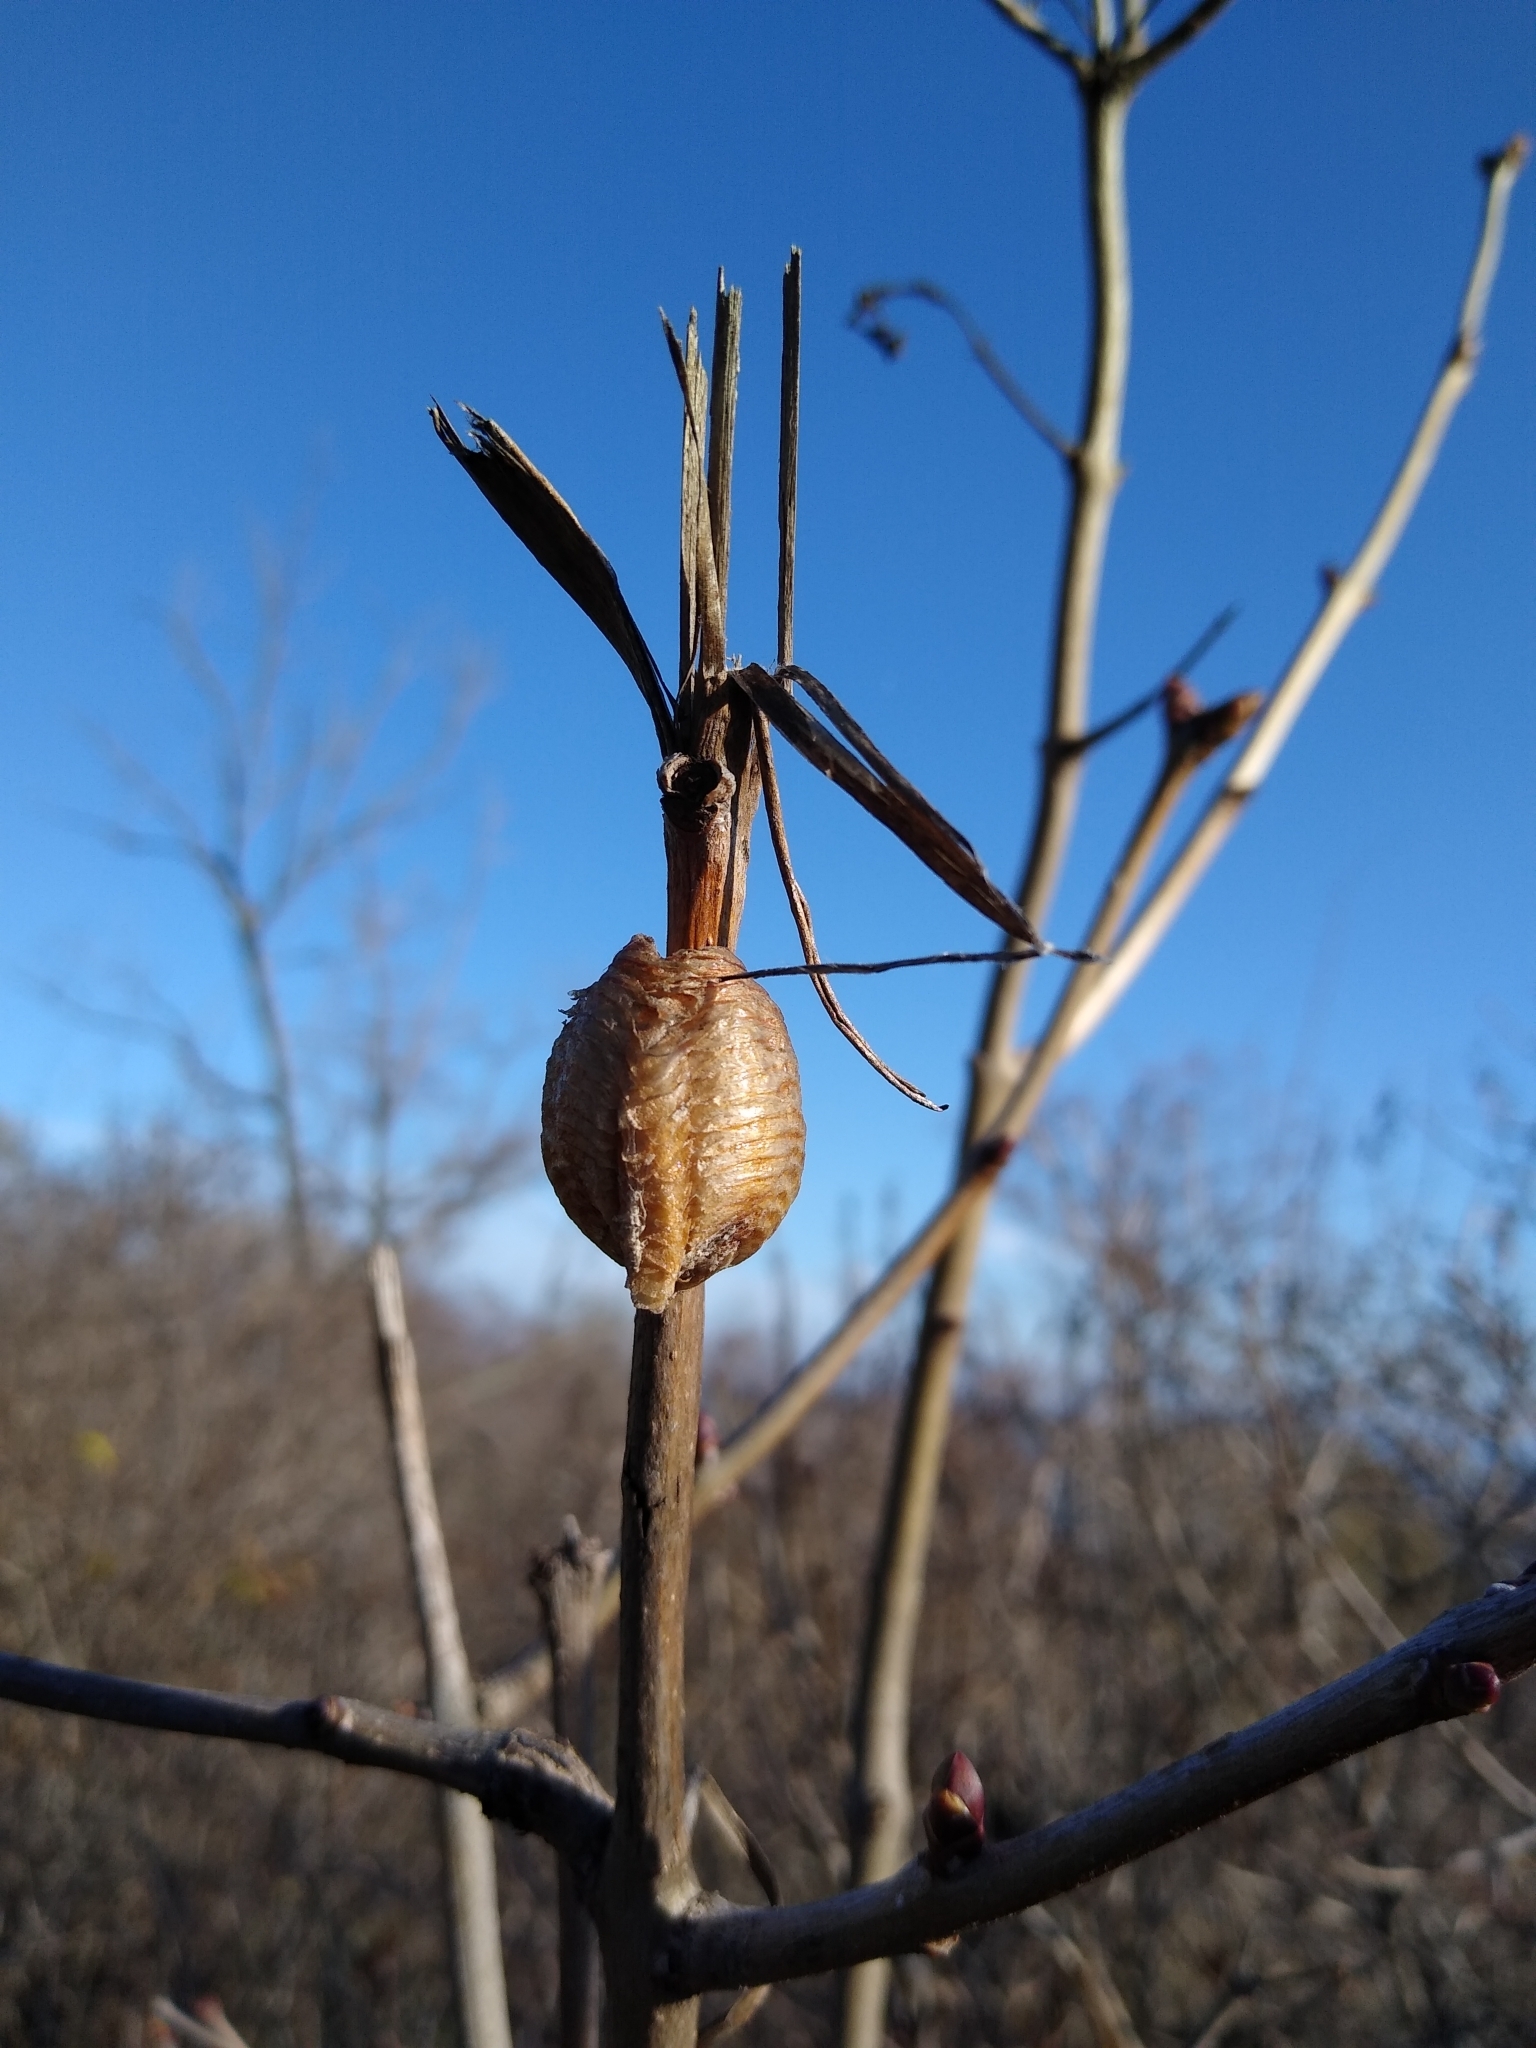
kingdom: Animalia
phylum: Arthropoda
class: Insecta
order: Mantodea
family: Mantidae
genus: Hierodula
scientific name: Hierodula transcaucasica
